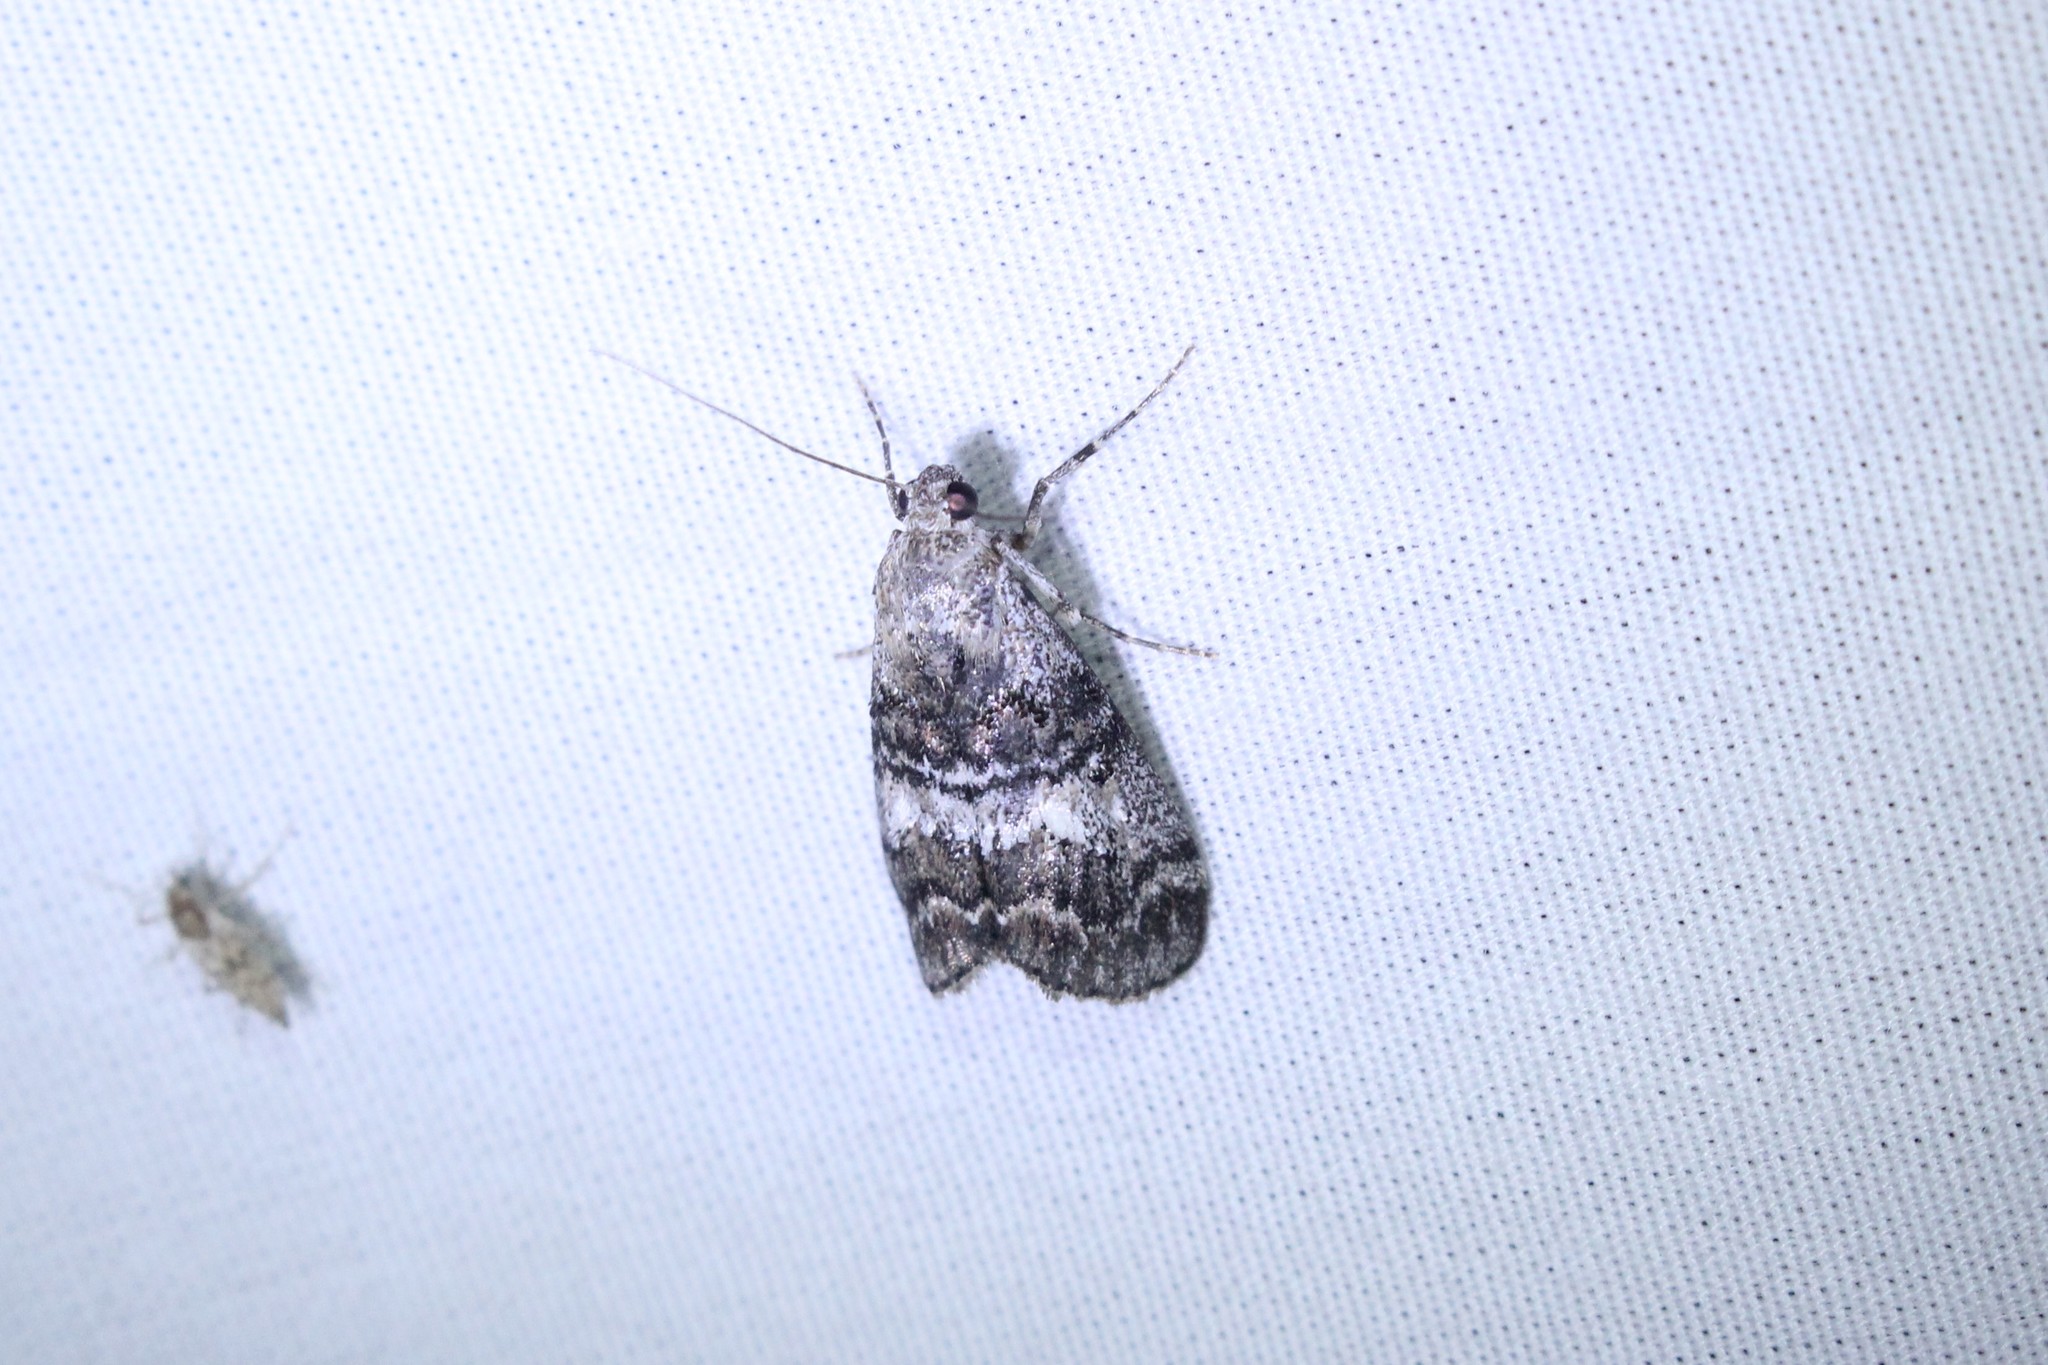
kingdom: Animalia
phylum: Arthropoda
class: Insecta
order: Lepidoptera
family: Pyralidae
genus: Pococera
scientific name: Pococera asperatella
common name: Maple webworm moth
